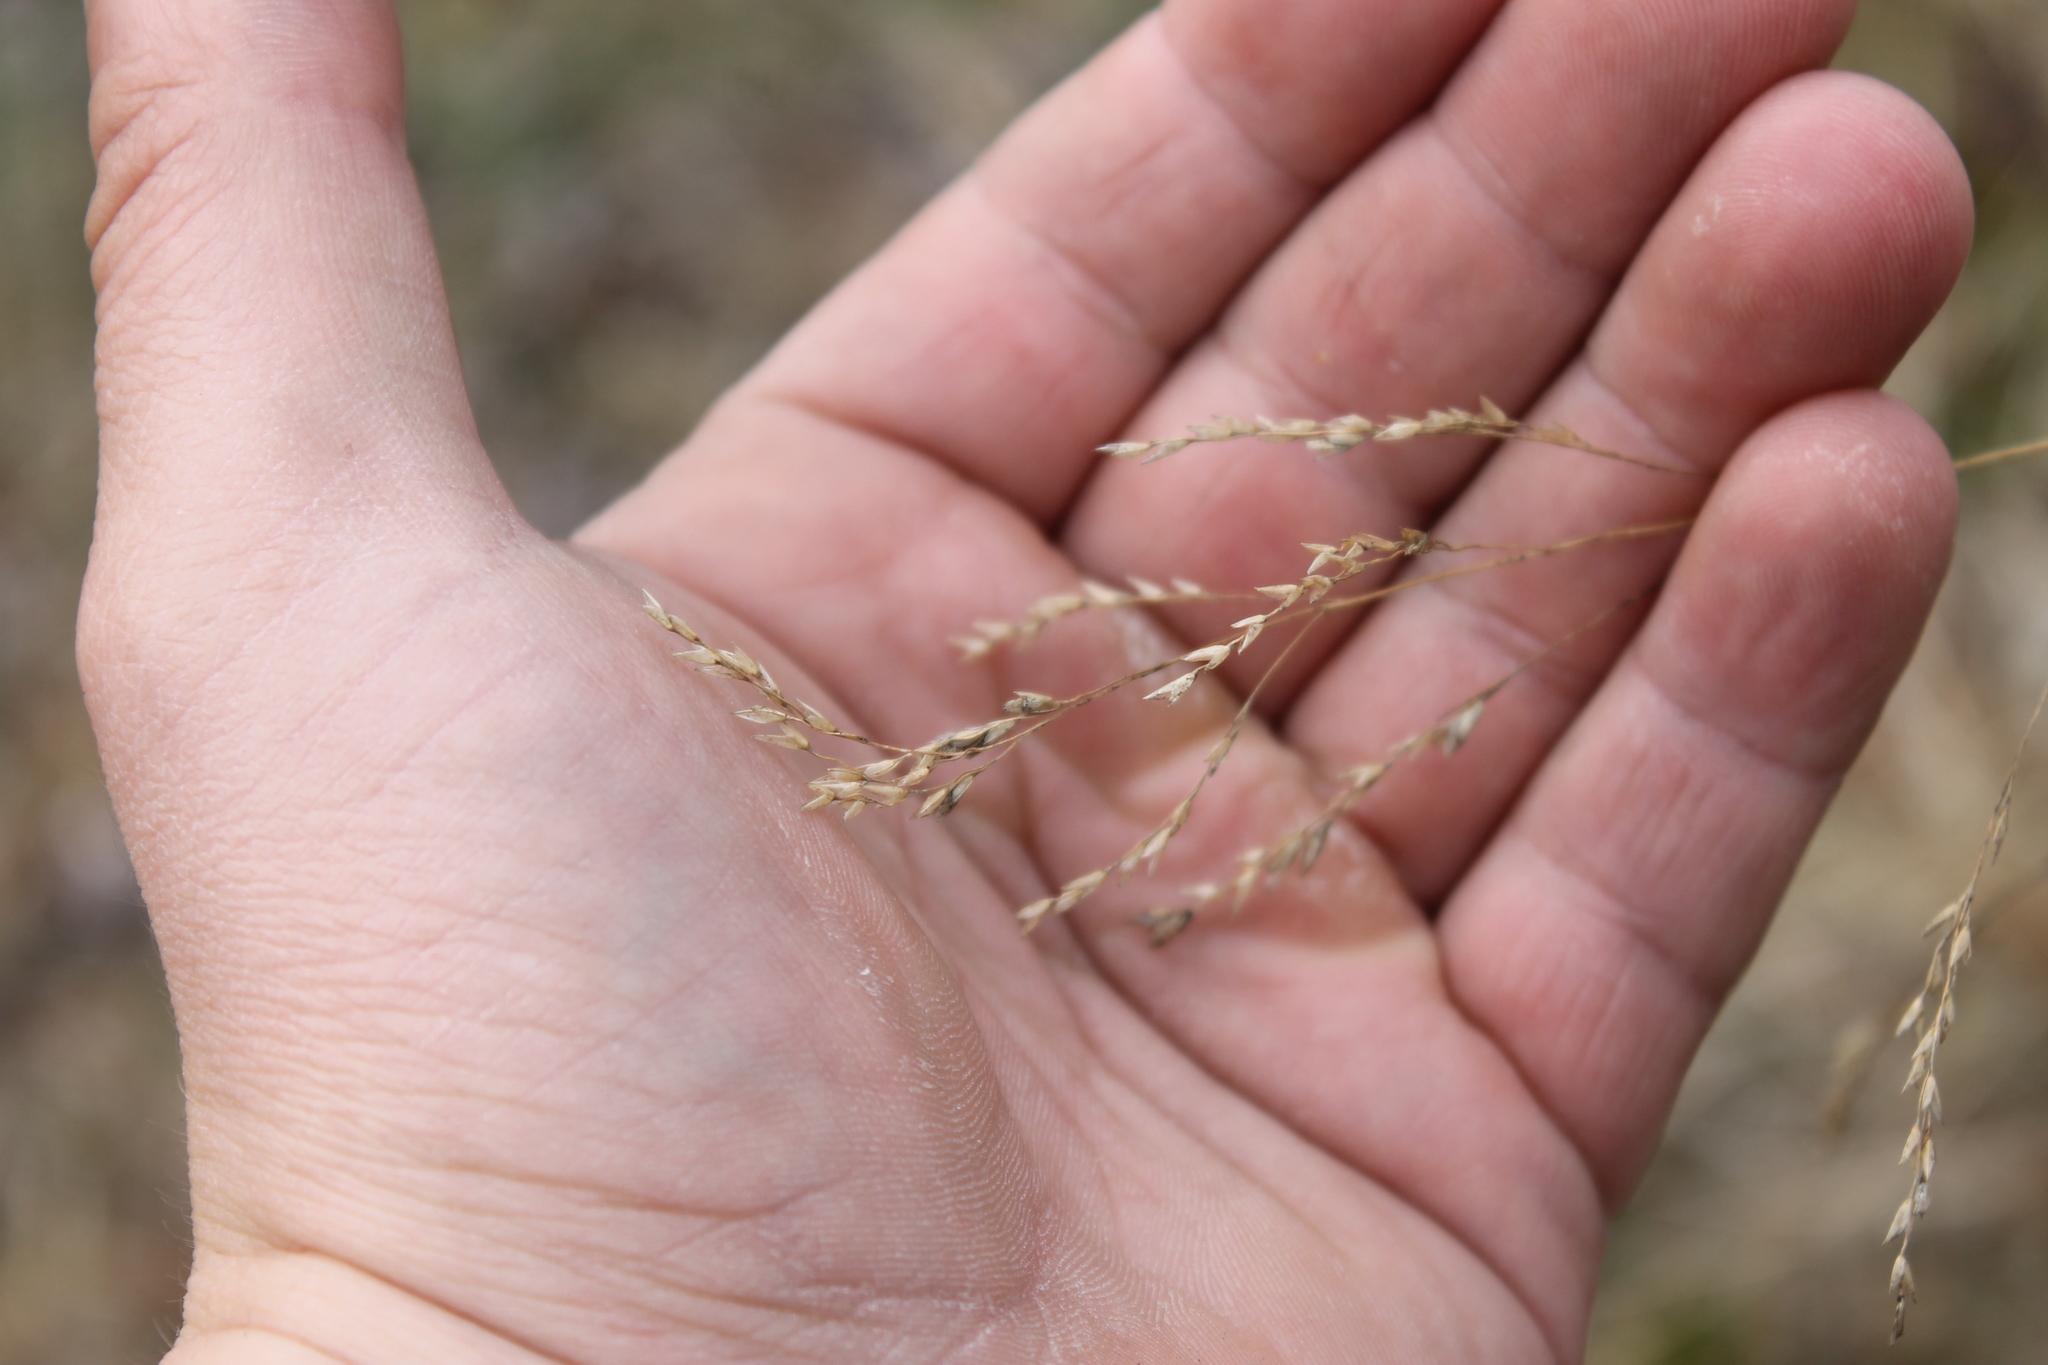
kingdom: Plantae
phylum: Tracheophyta
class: Liliopsida
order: Poales
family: Poaceae
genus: Tridens
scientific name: Tridens flavus
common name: Purpletop
